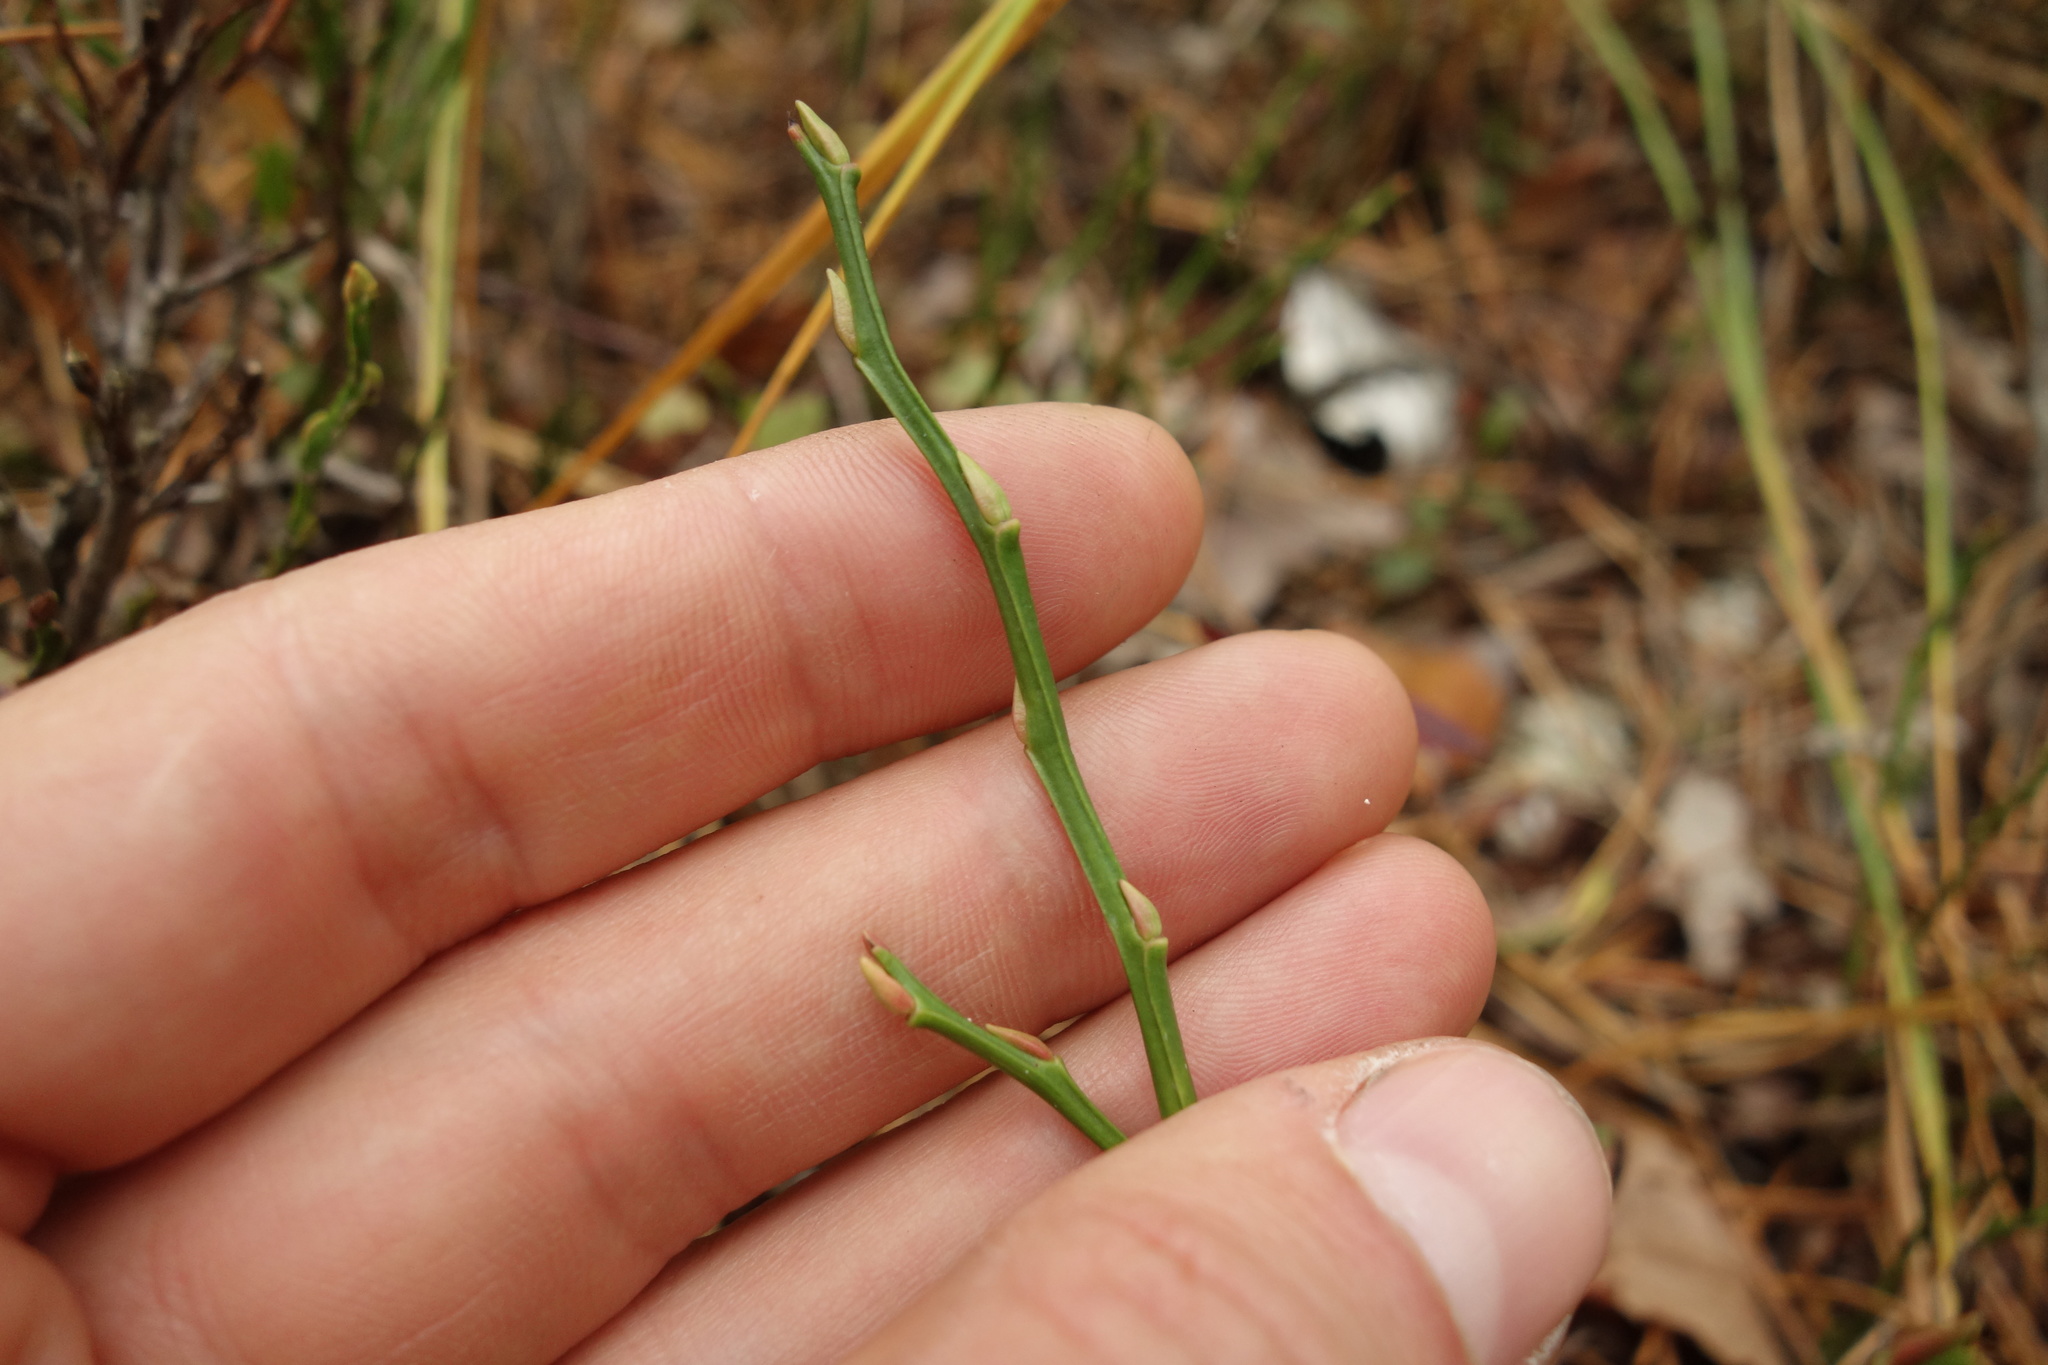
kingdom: Plantae
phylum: Tracheophyta
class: Magnoliopsida
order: Ericales
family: Ericaceae
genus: Vaccinium
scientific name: Vaccinium myrtillus
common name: Bilberry
